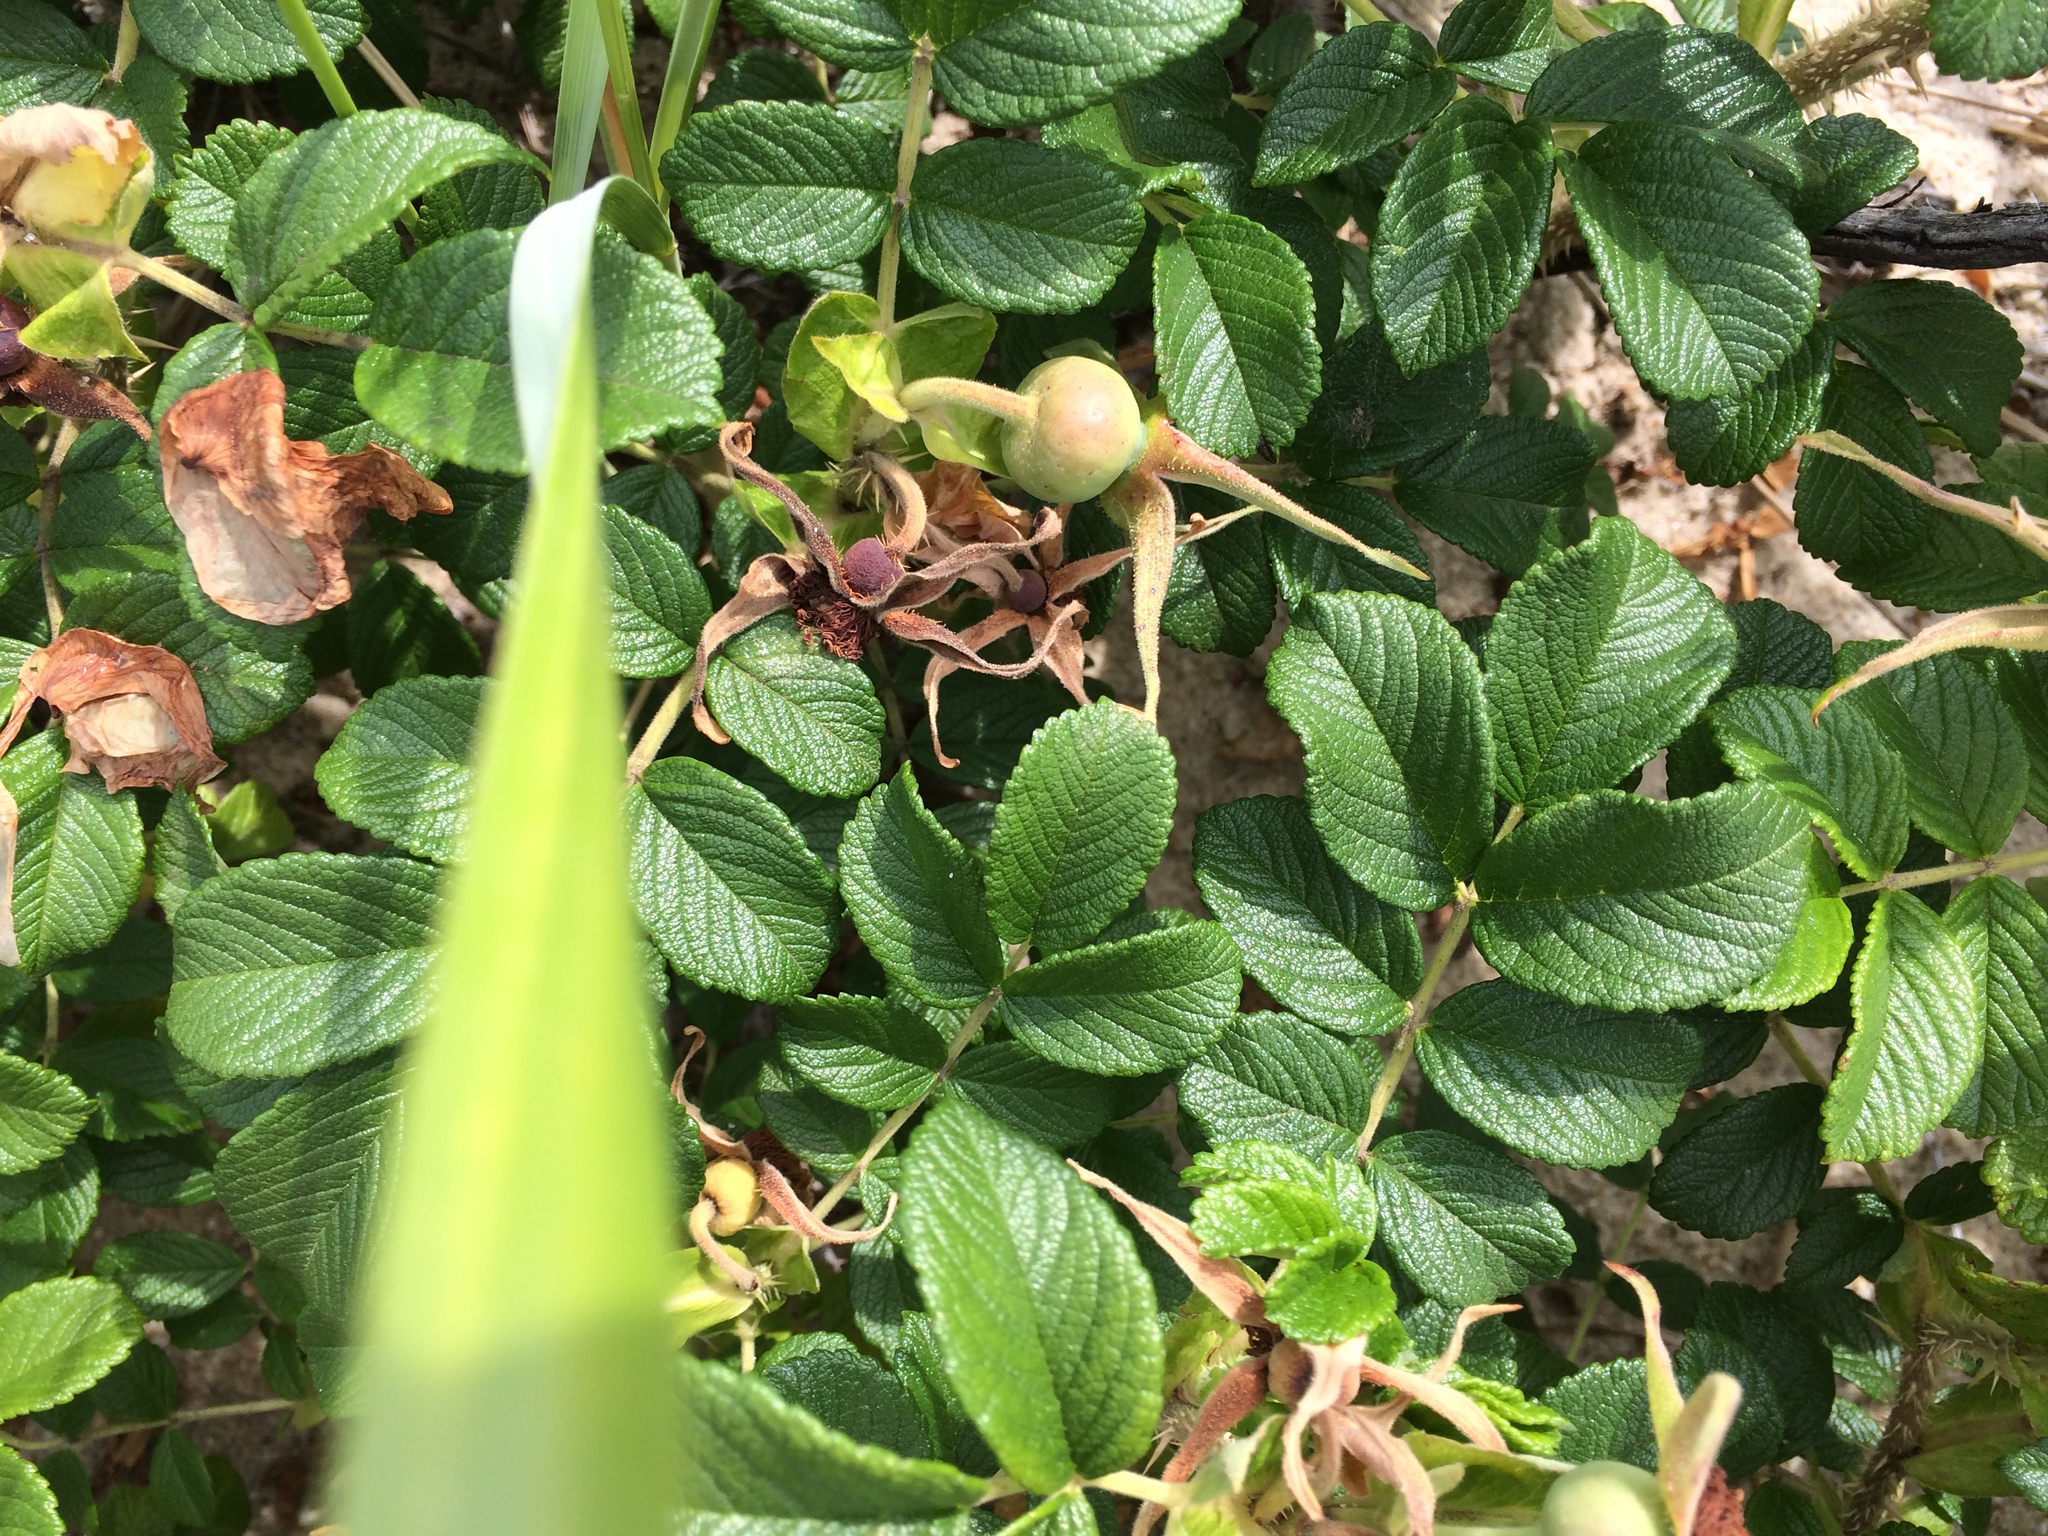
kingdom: Plantae
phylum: Tracheophyta
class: Magnoliopsida
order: Rosales
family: Rosaceae
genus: Rosa
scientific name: Rosa rugosa
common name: Japanese rose
